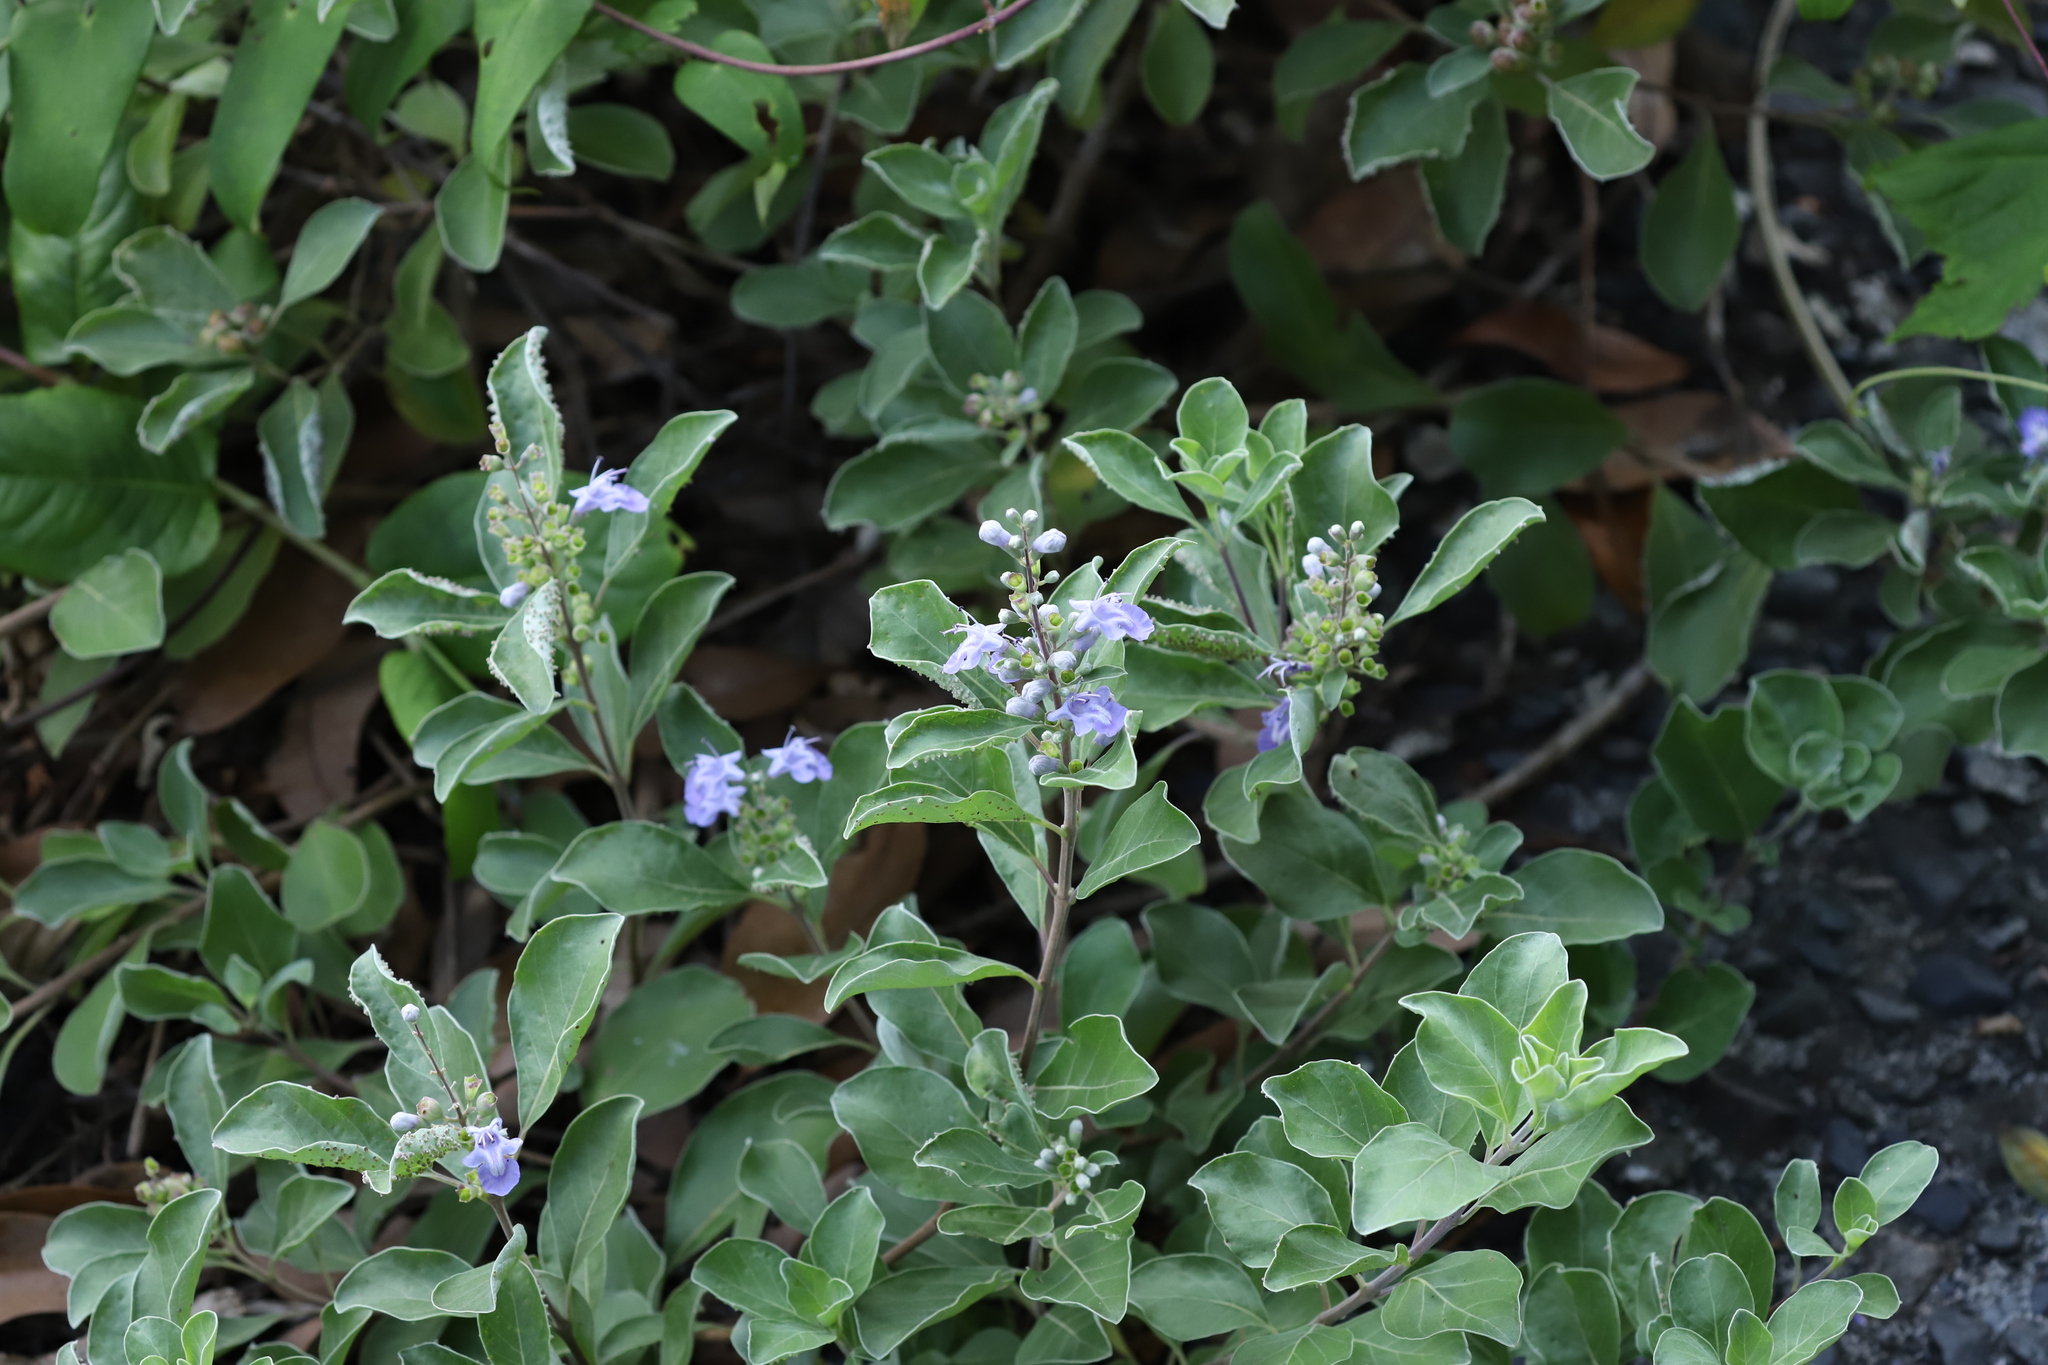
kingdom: Plantae
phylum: Tracheophyta
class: Magnoliopsida
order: Lamiales
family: Lamiaceae
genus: Vitex
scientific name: Vitex rotundifolia
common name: Beach vitex
